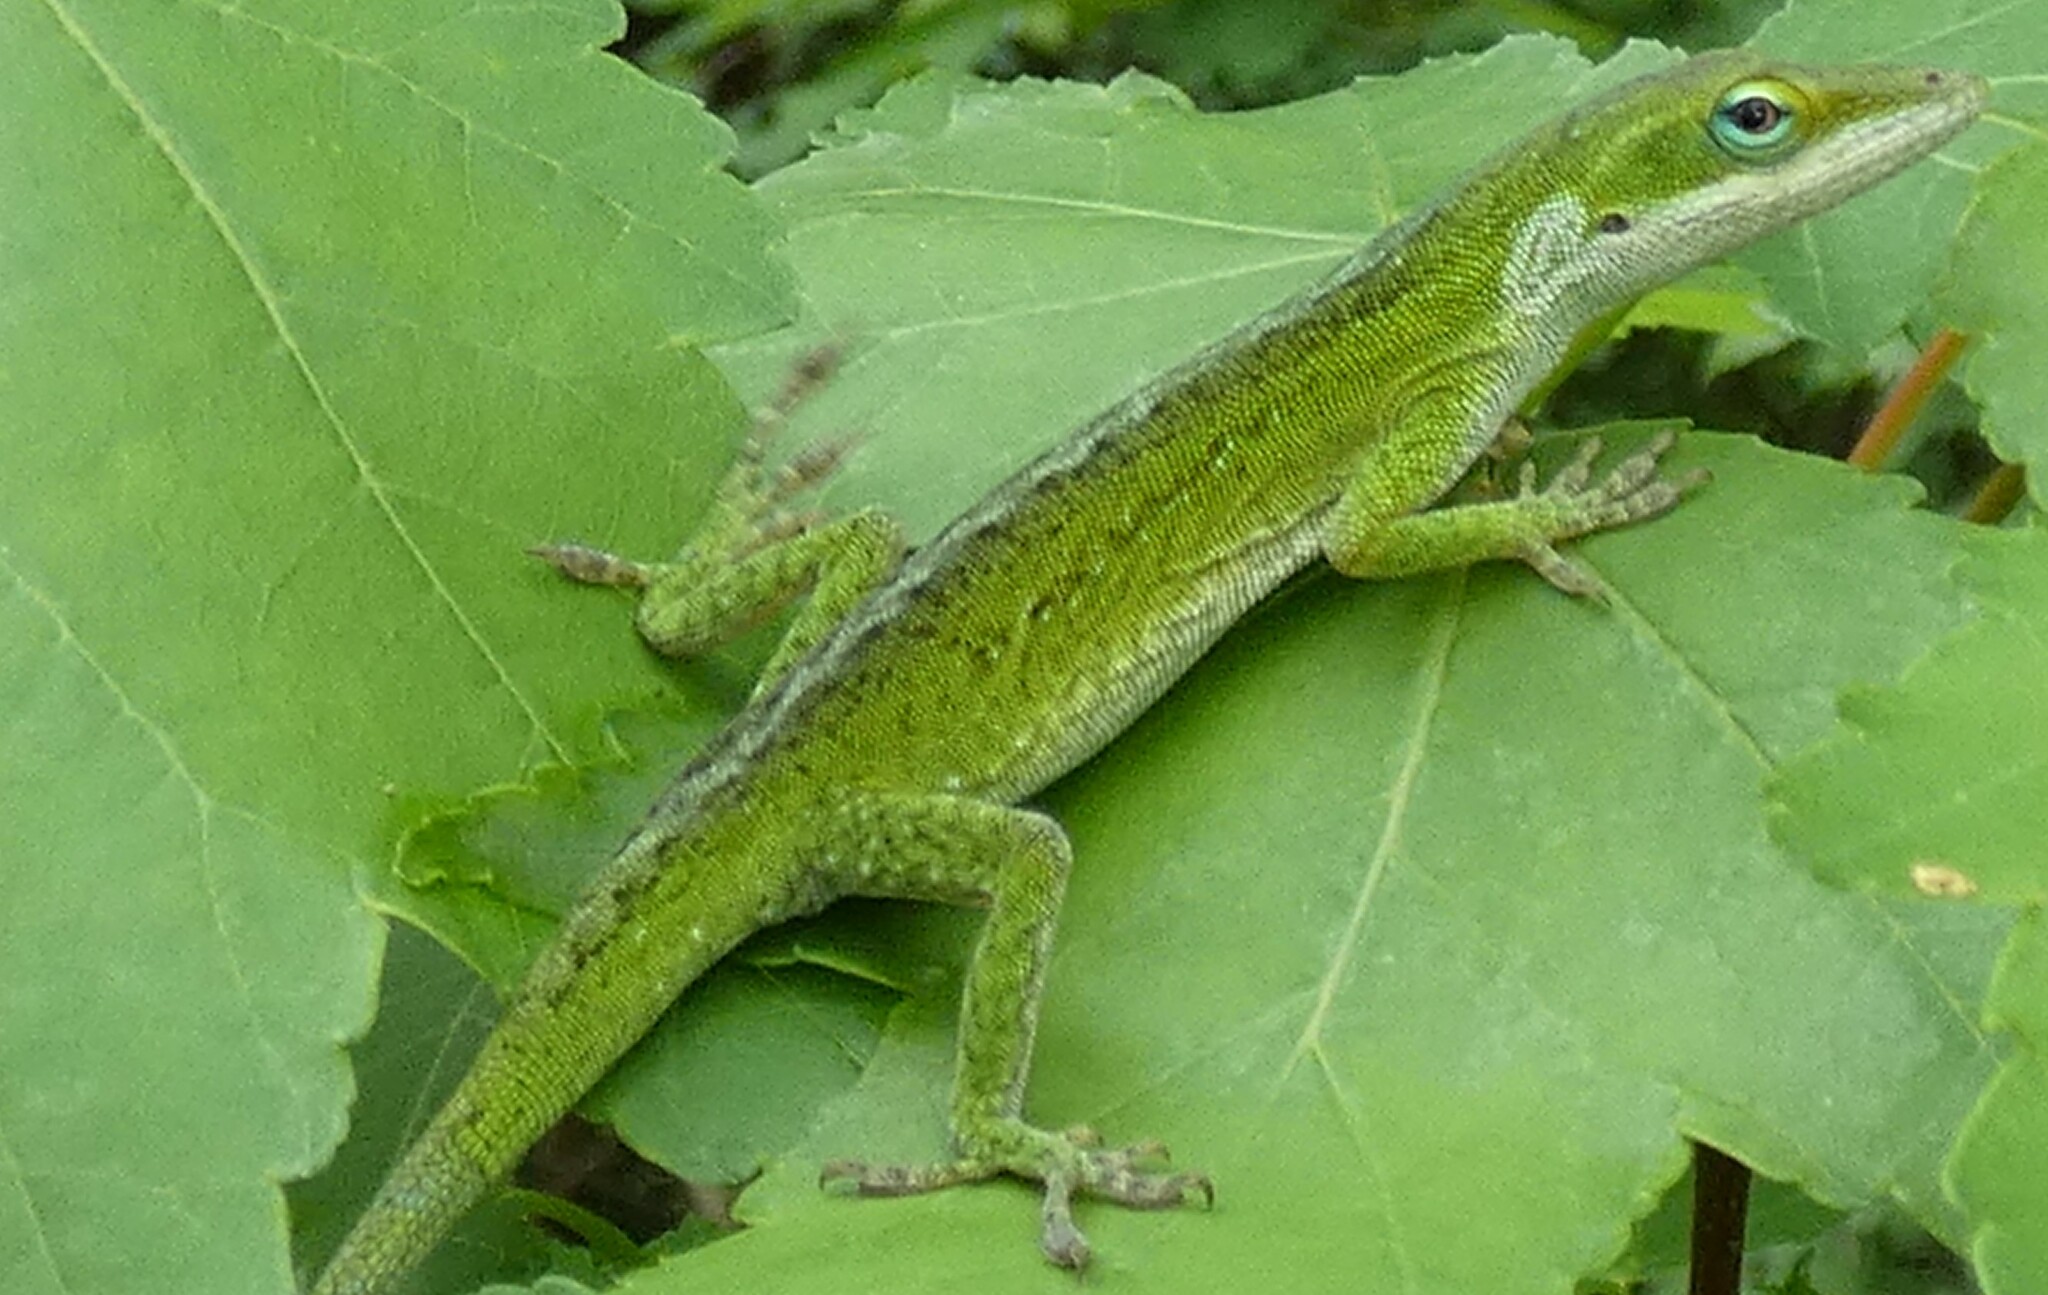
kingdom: Animalia
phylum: Chordata
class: Squamata
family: Dactyloidae
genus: Anolis
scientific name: Anolis carolinensis
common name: Green anole
